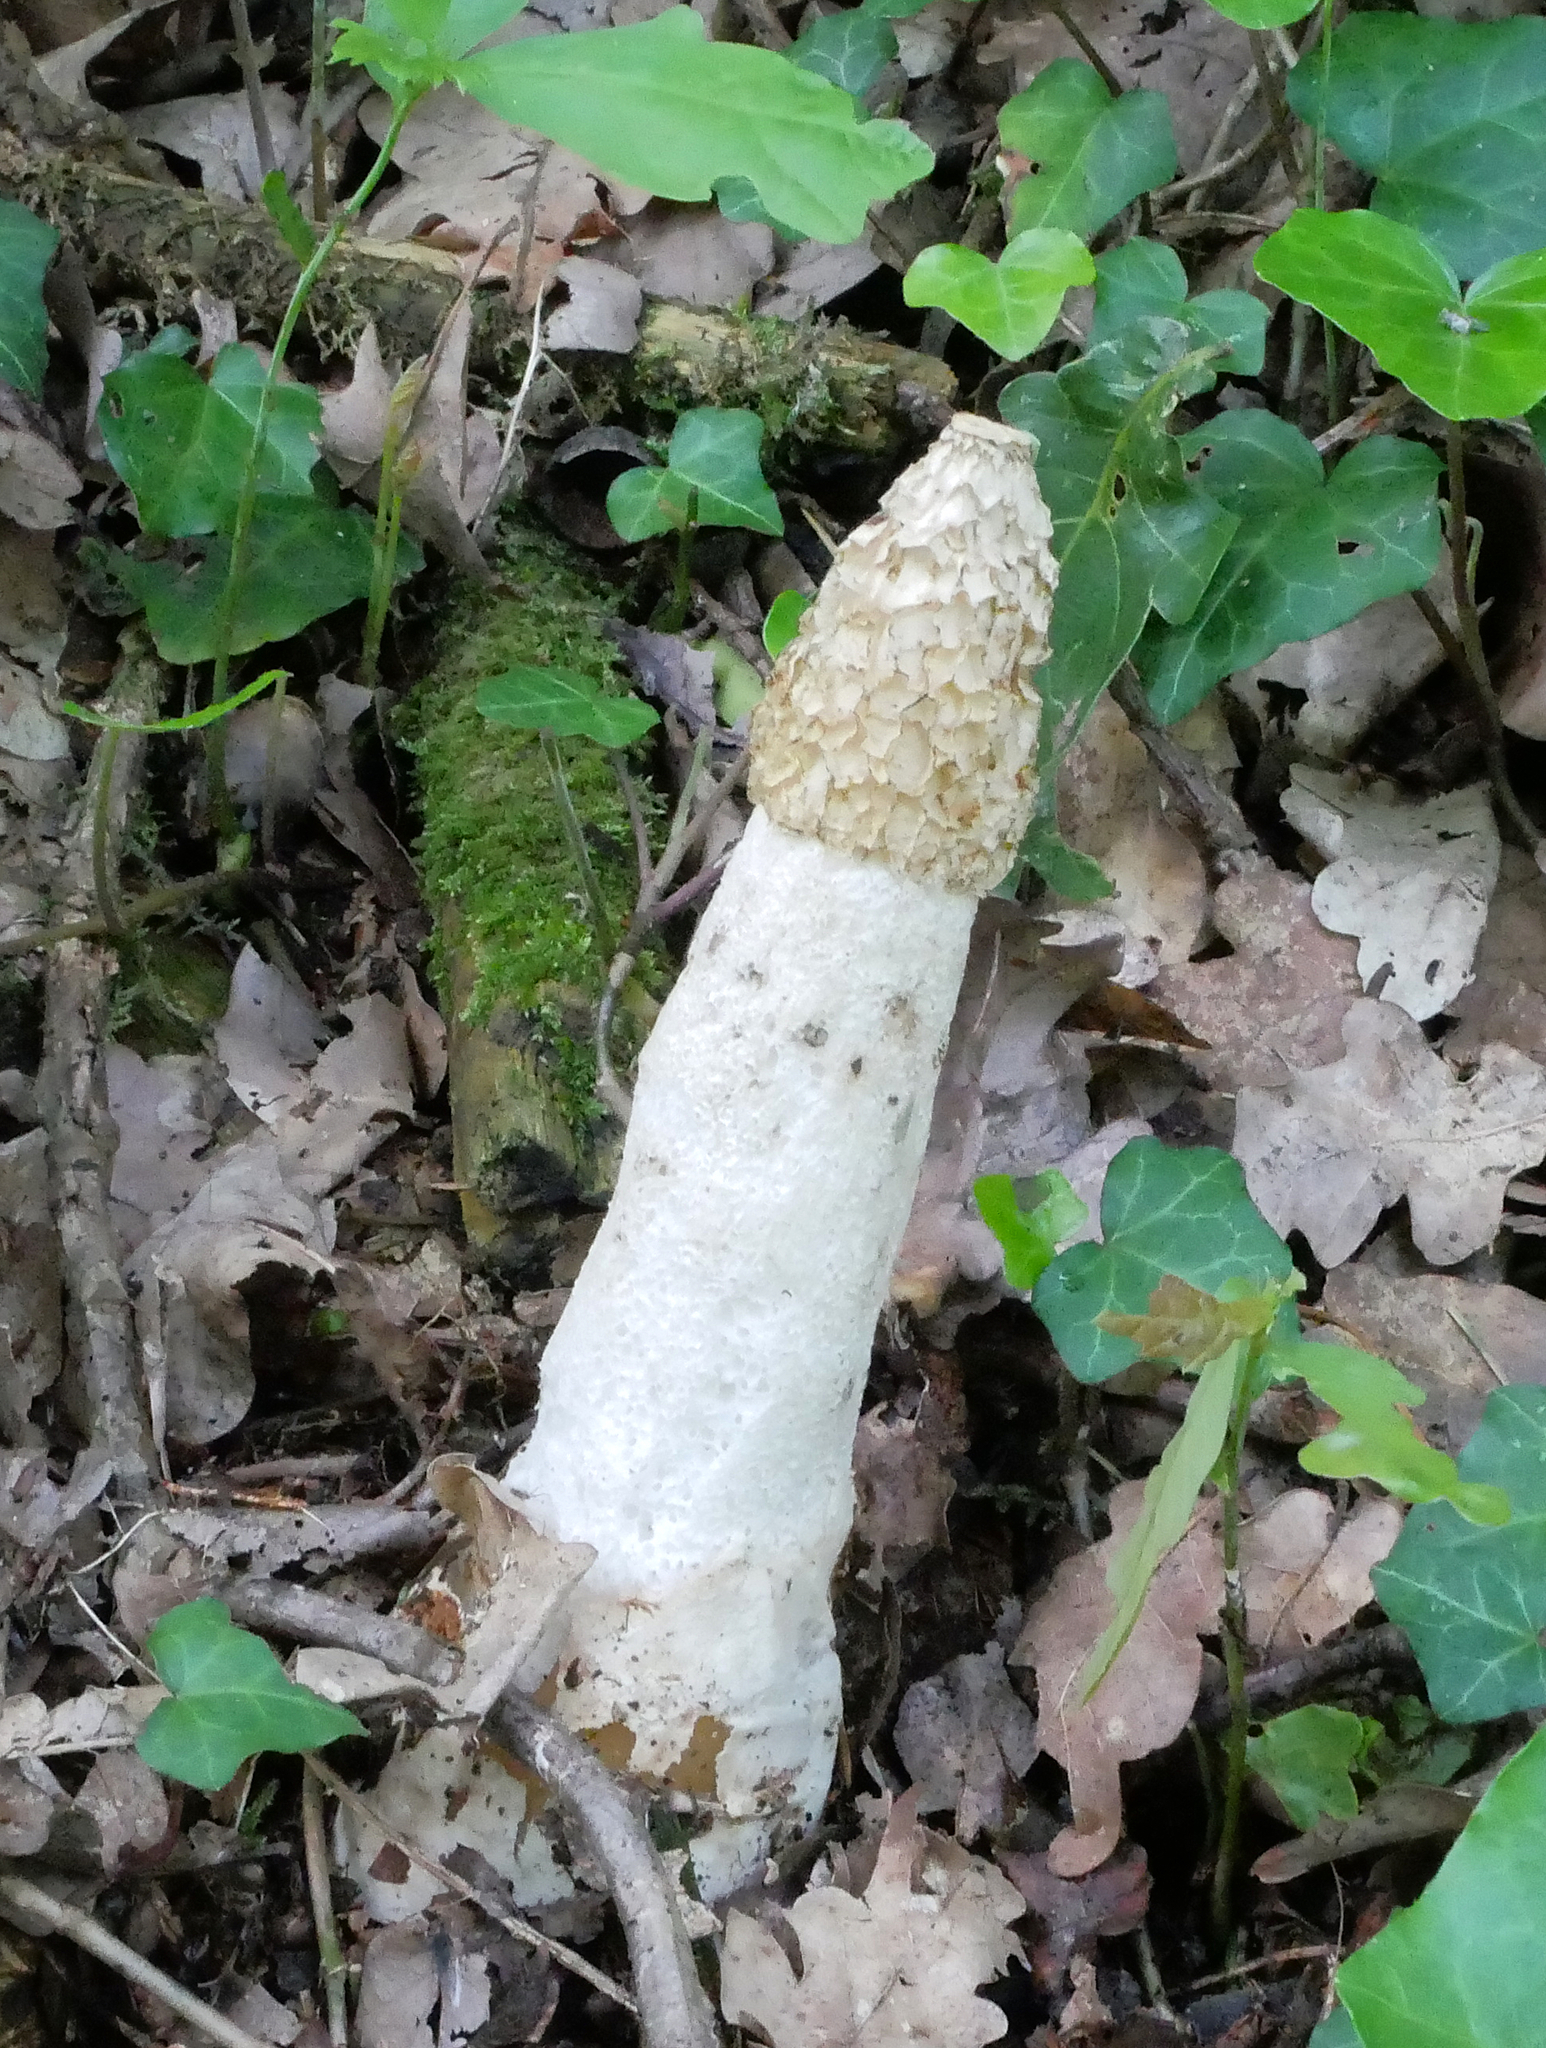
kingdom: Fungi
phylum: Basidiomycota
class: Agaricomycetes
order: Phallales
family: Phallaceae
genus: Phallus
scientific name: Phallus impudicus
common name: Common stinkhorn
